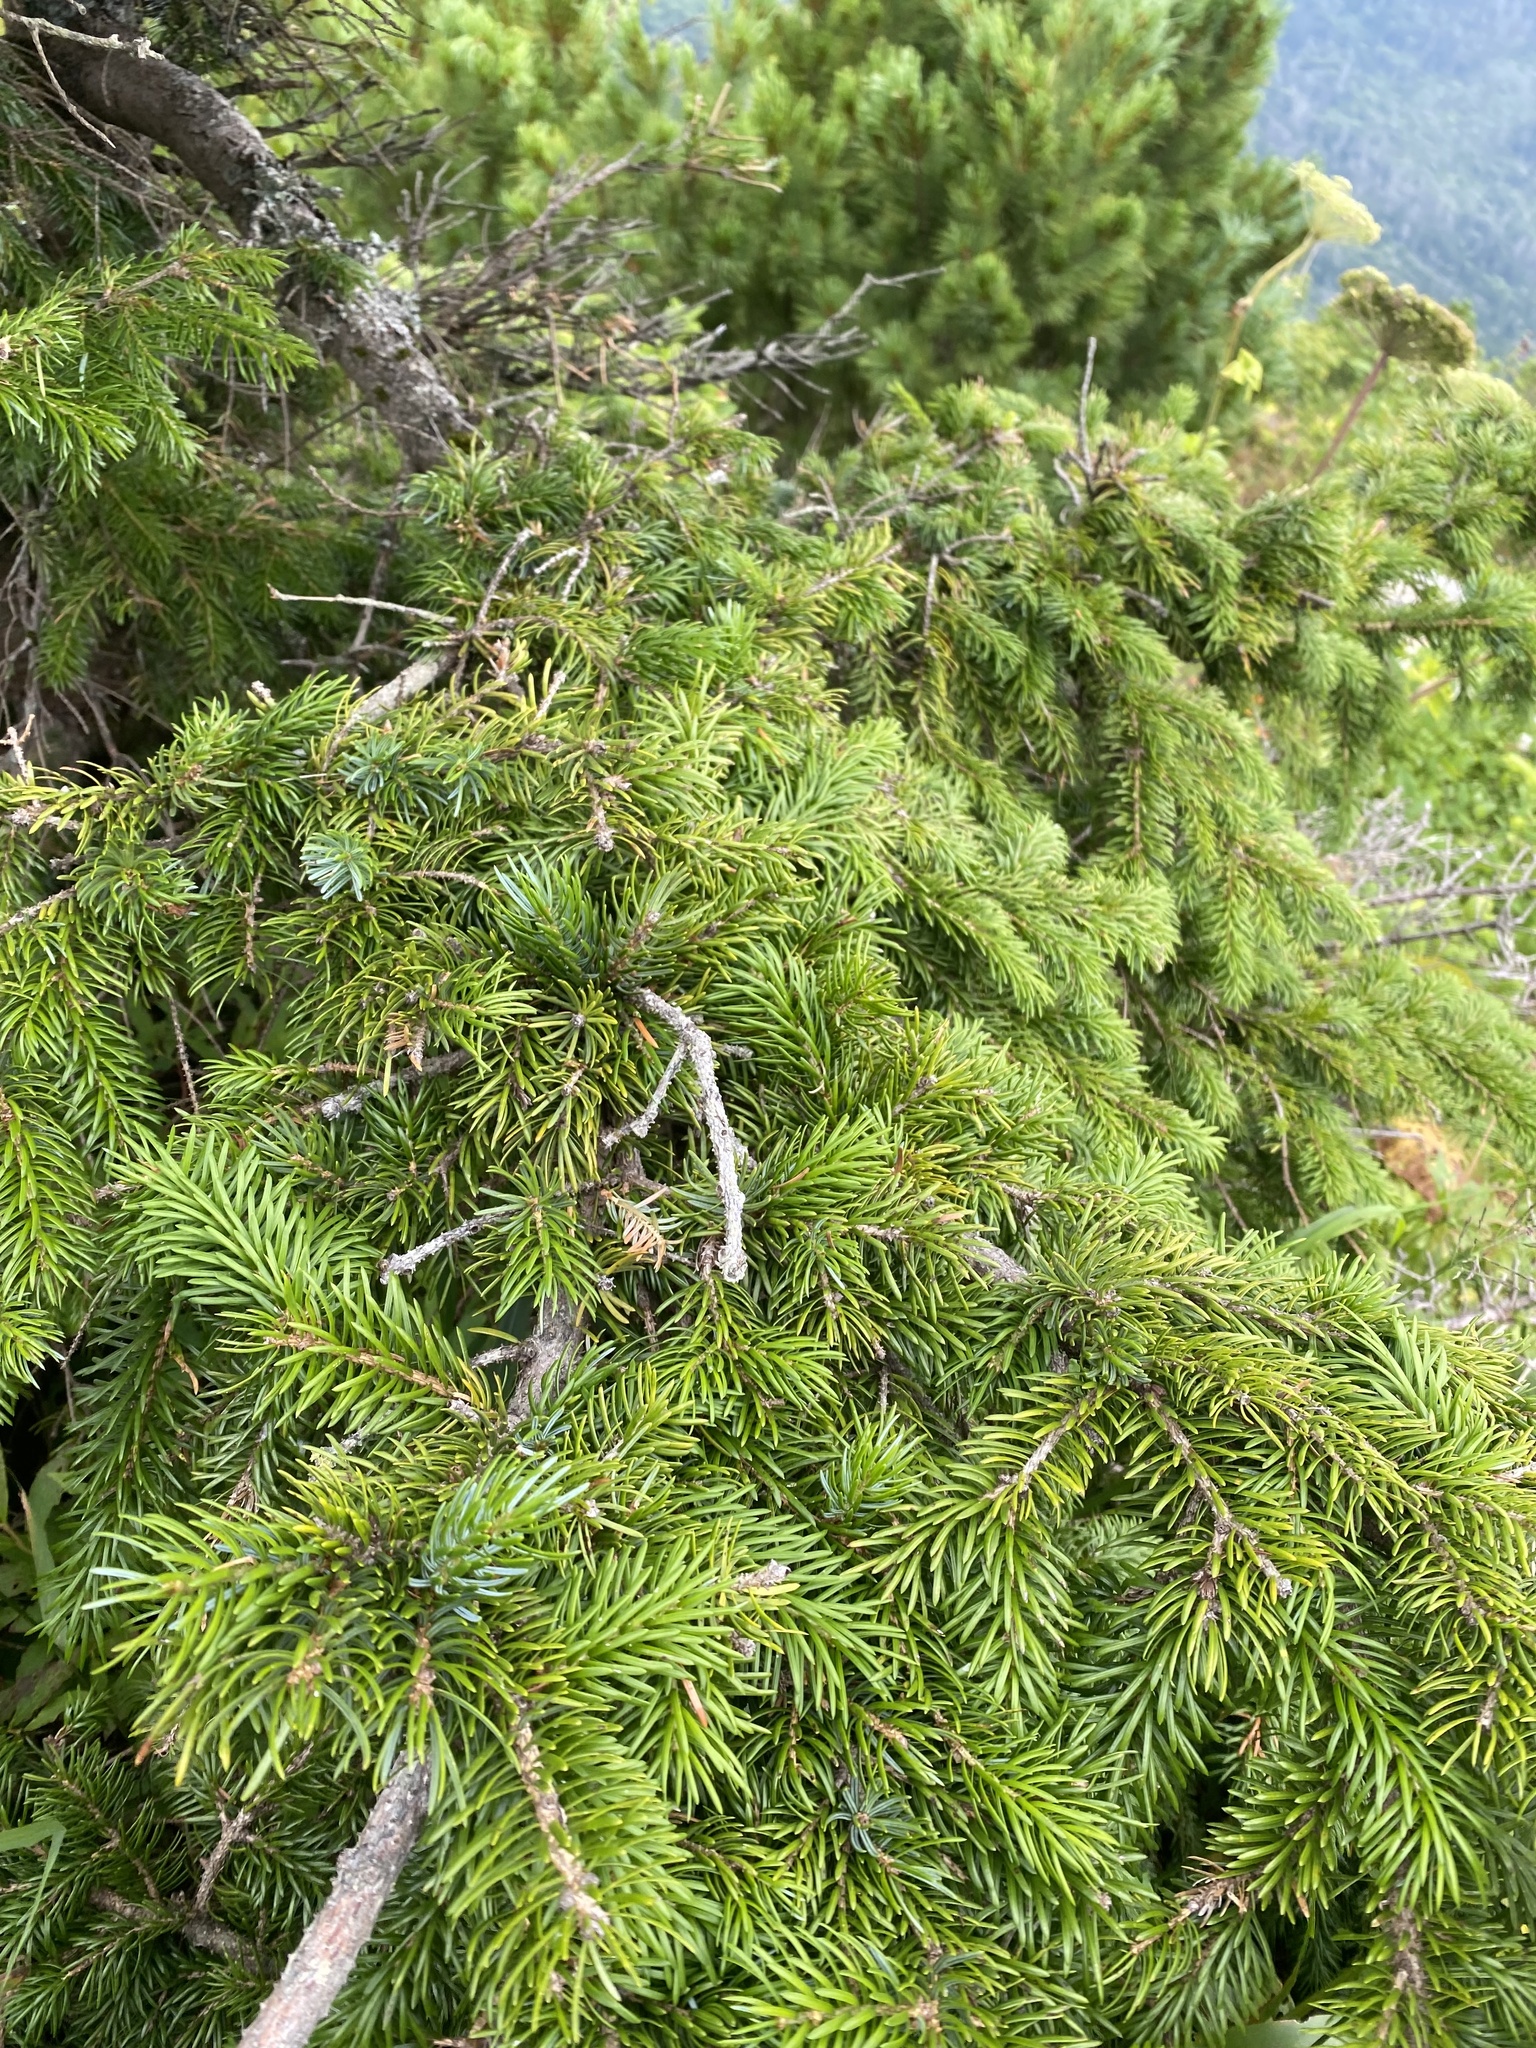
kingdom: Plantae
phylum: Tracheophyta
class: Pinopsida
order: Pinales
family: Pinaceae
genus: Picea
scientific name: Picea jezoensis
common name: Yeddo spruce
